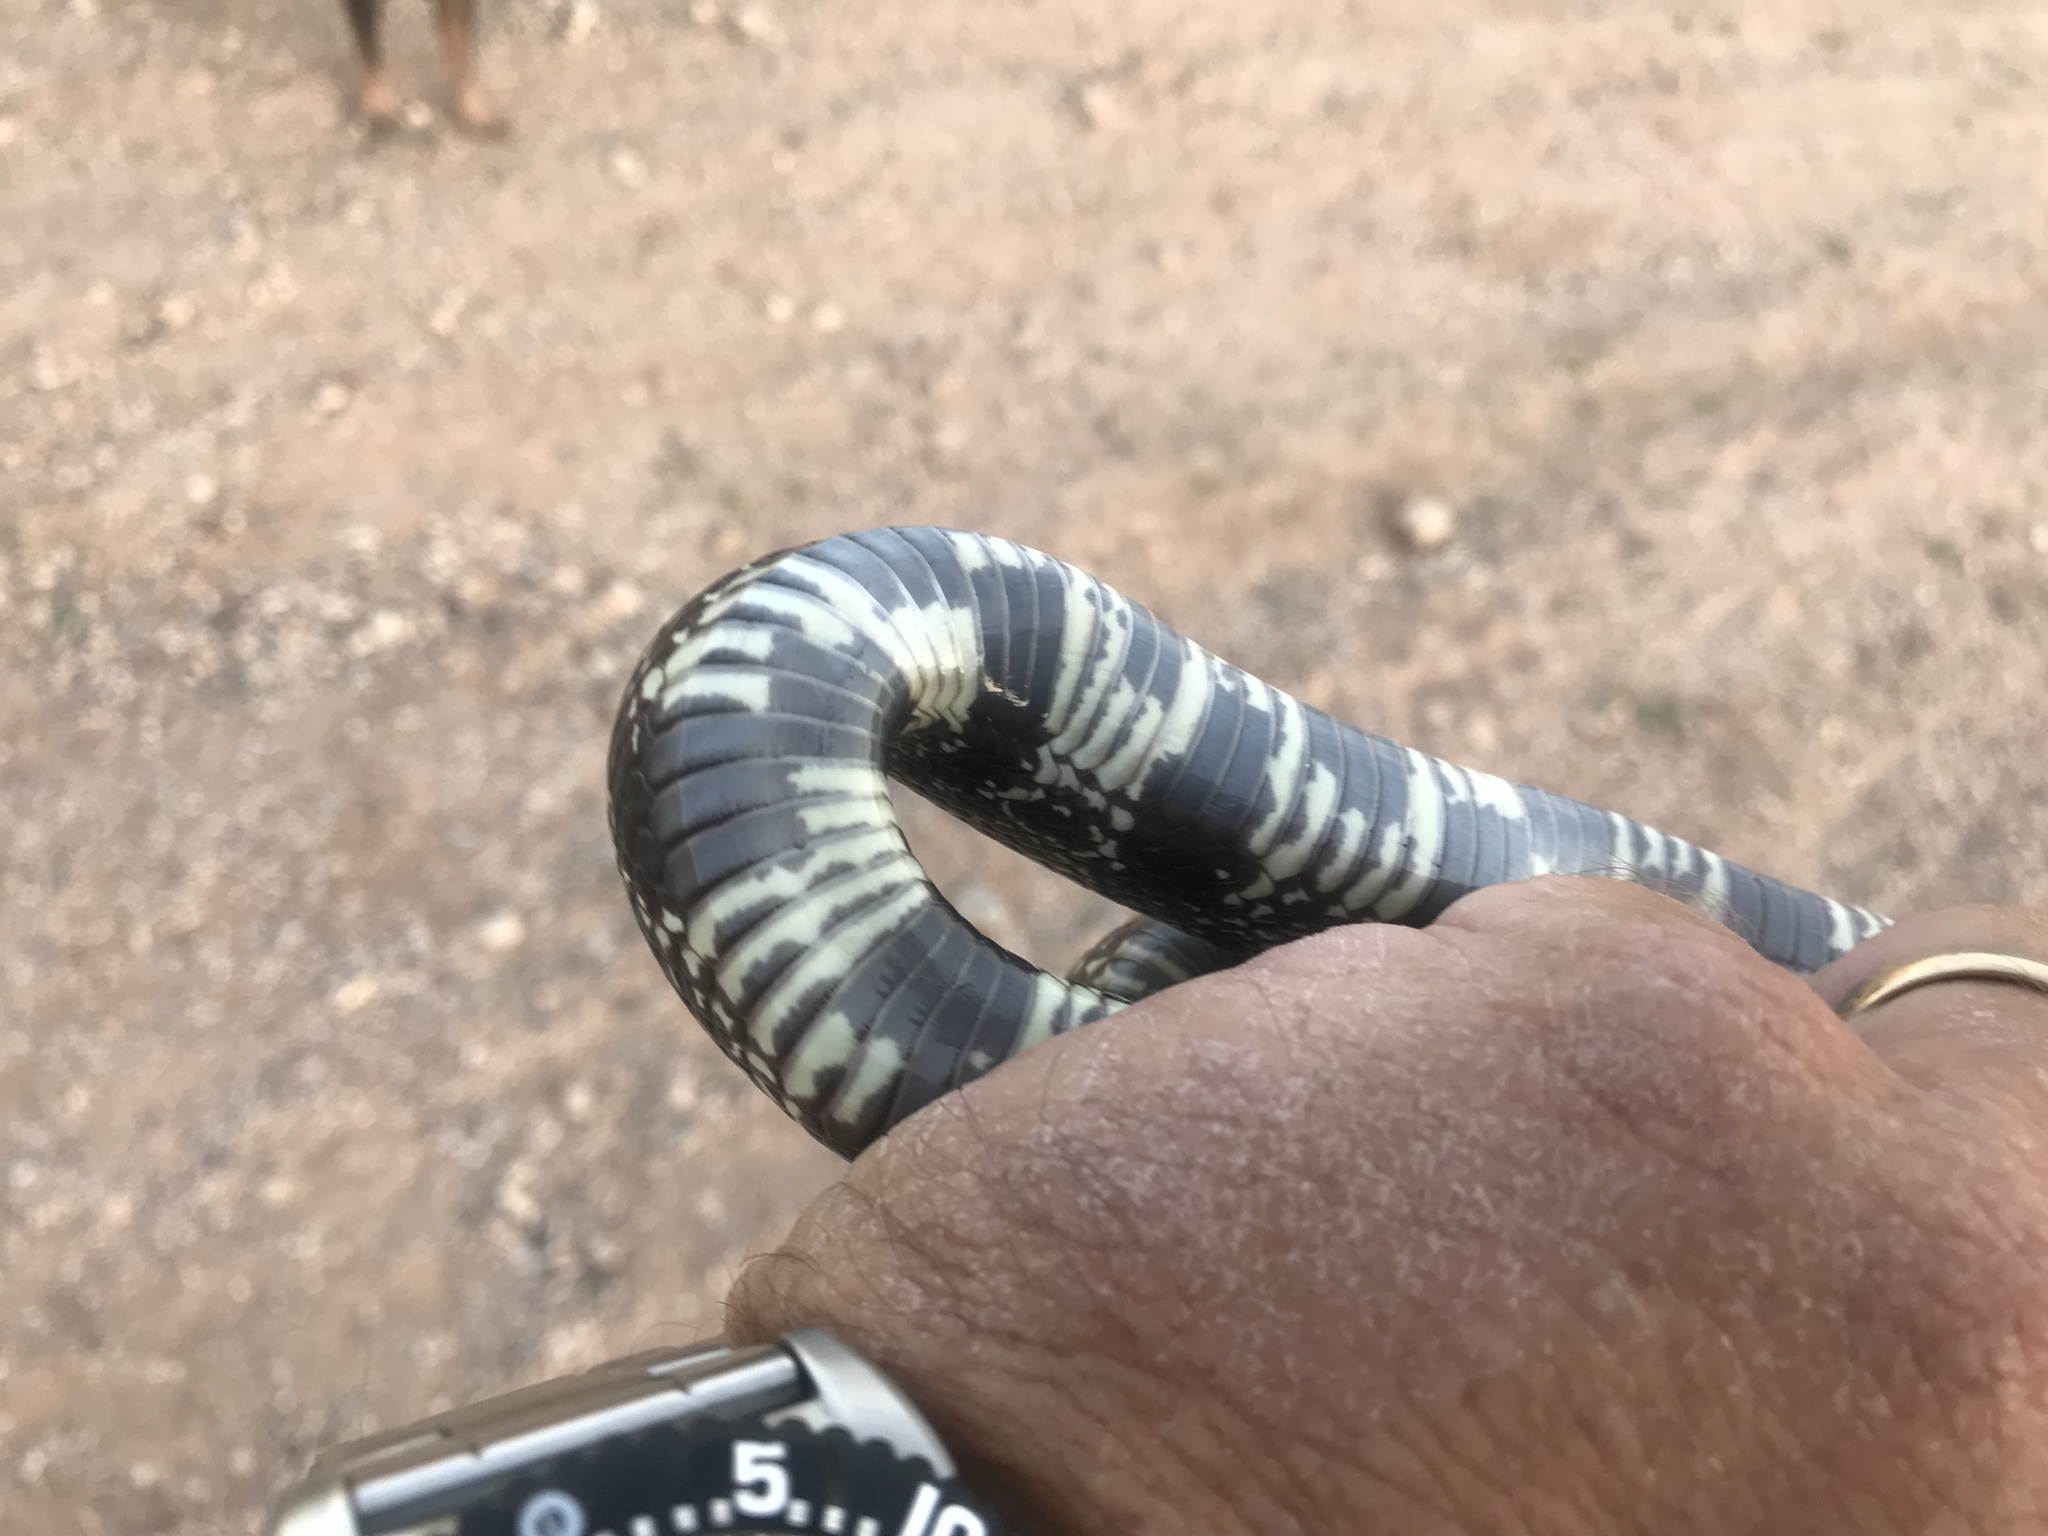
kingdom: Animalia
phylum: Chordata
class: Squamata
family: Colubridae
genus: Lampropeltis
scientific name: Lampropeltis splendida
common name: Desert kingsnake
